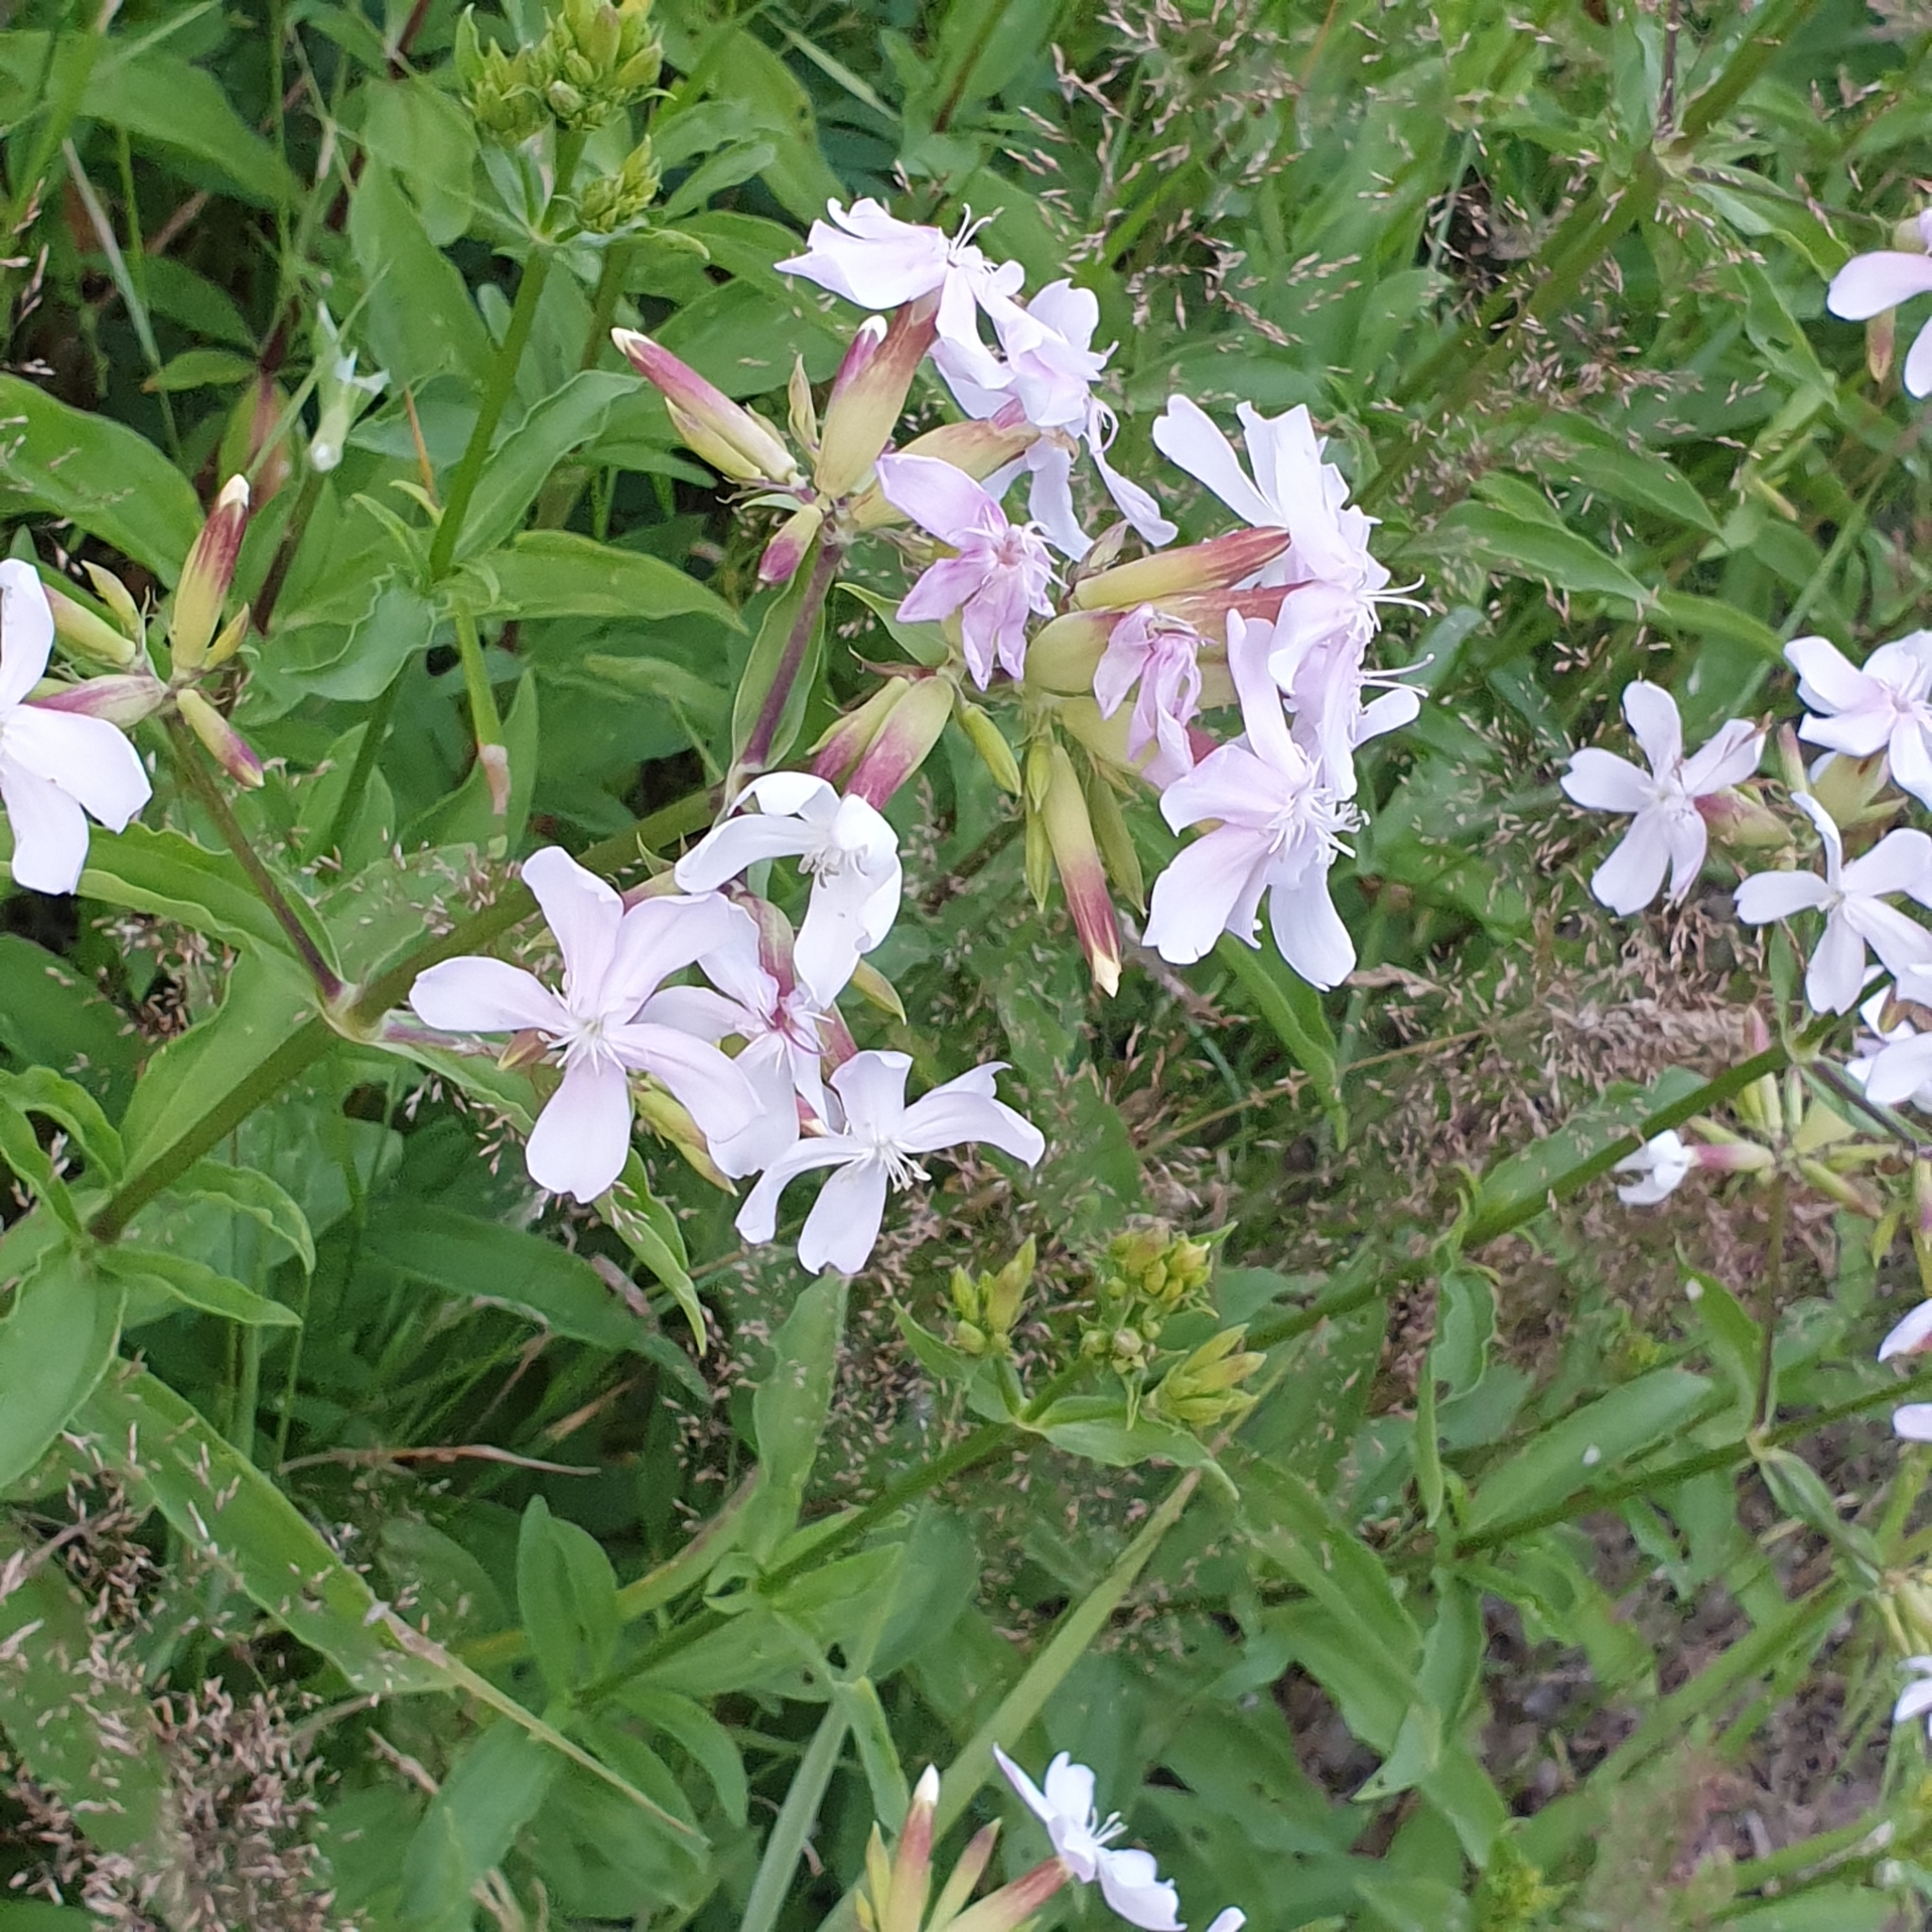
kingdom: Plantae
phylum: Tracheophyta
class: Magnoliopsida
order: Caryophyllales
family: Caryophyllaceae
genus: Saponaria
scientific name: Saponaria officinalis
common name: Soapwort
